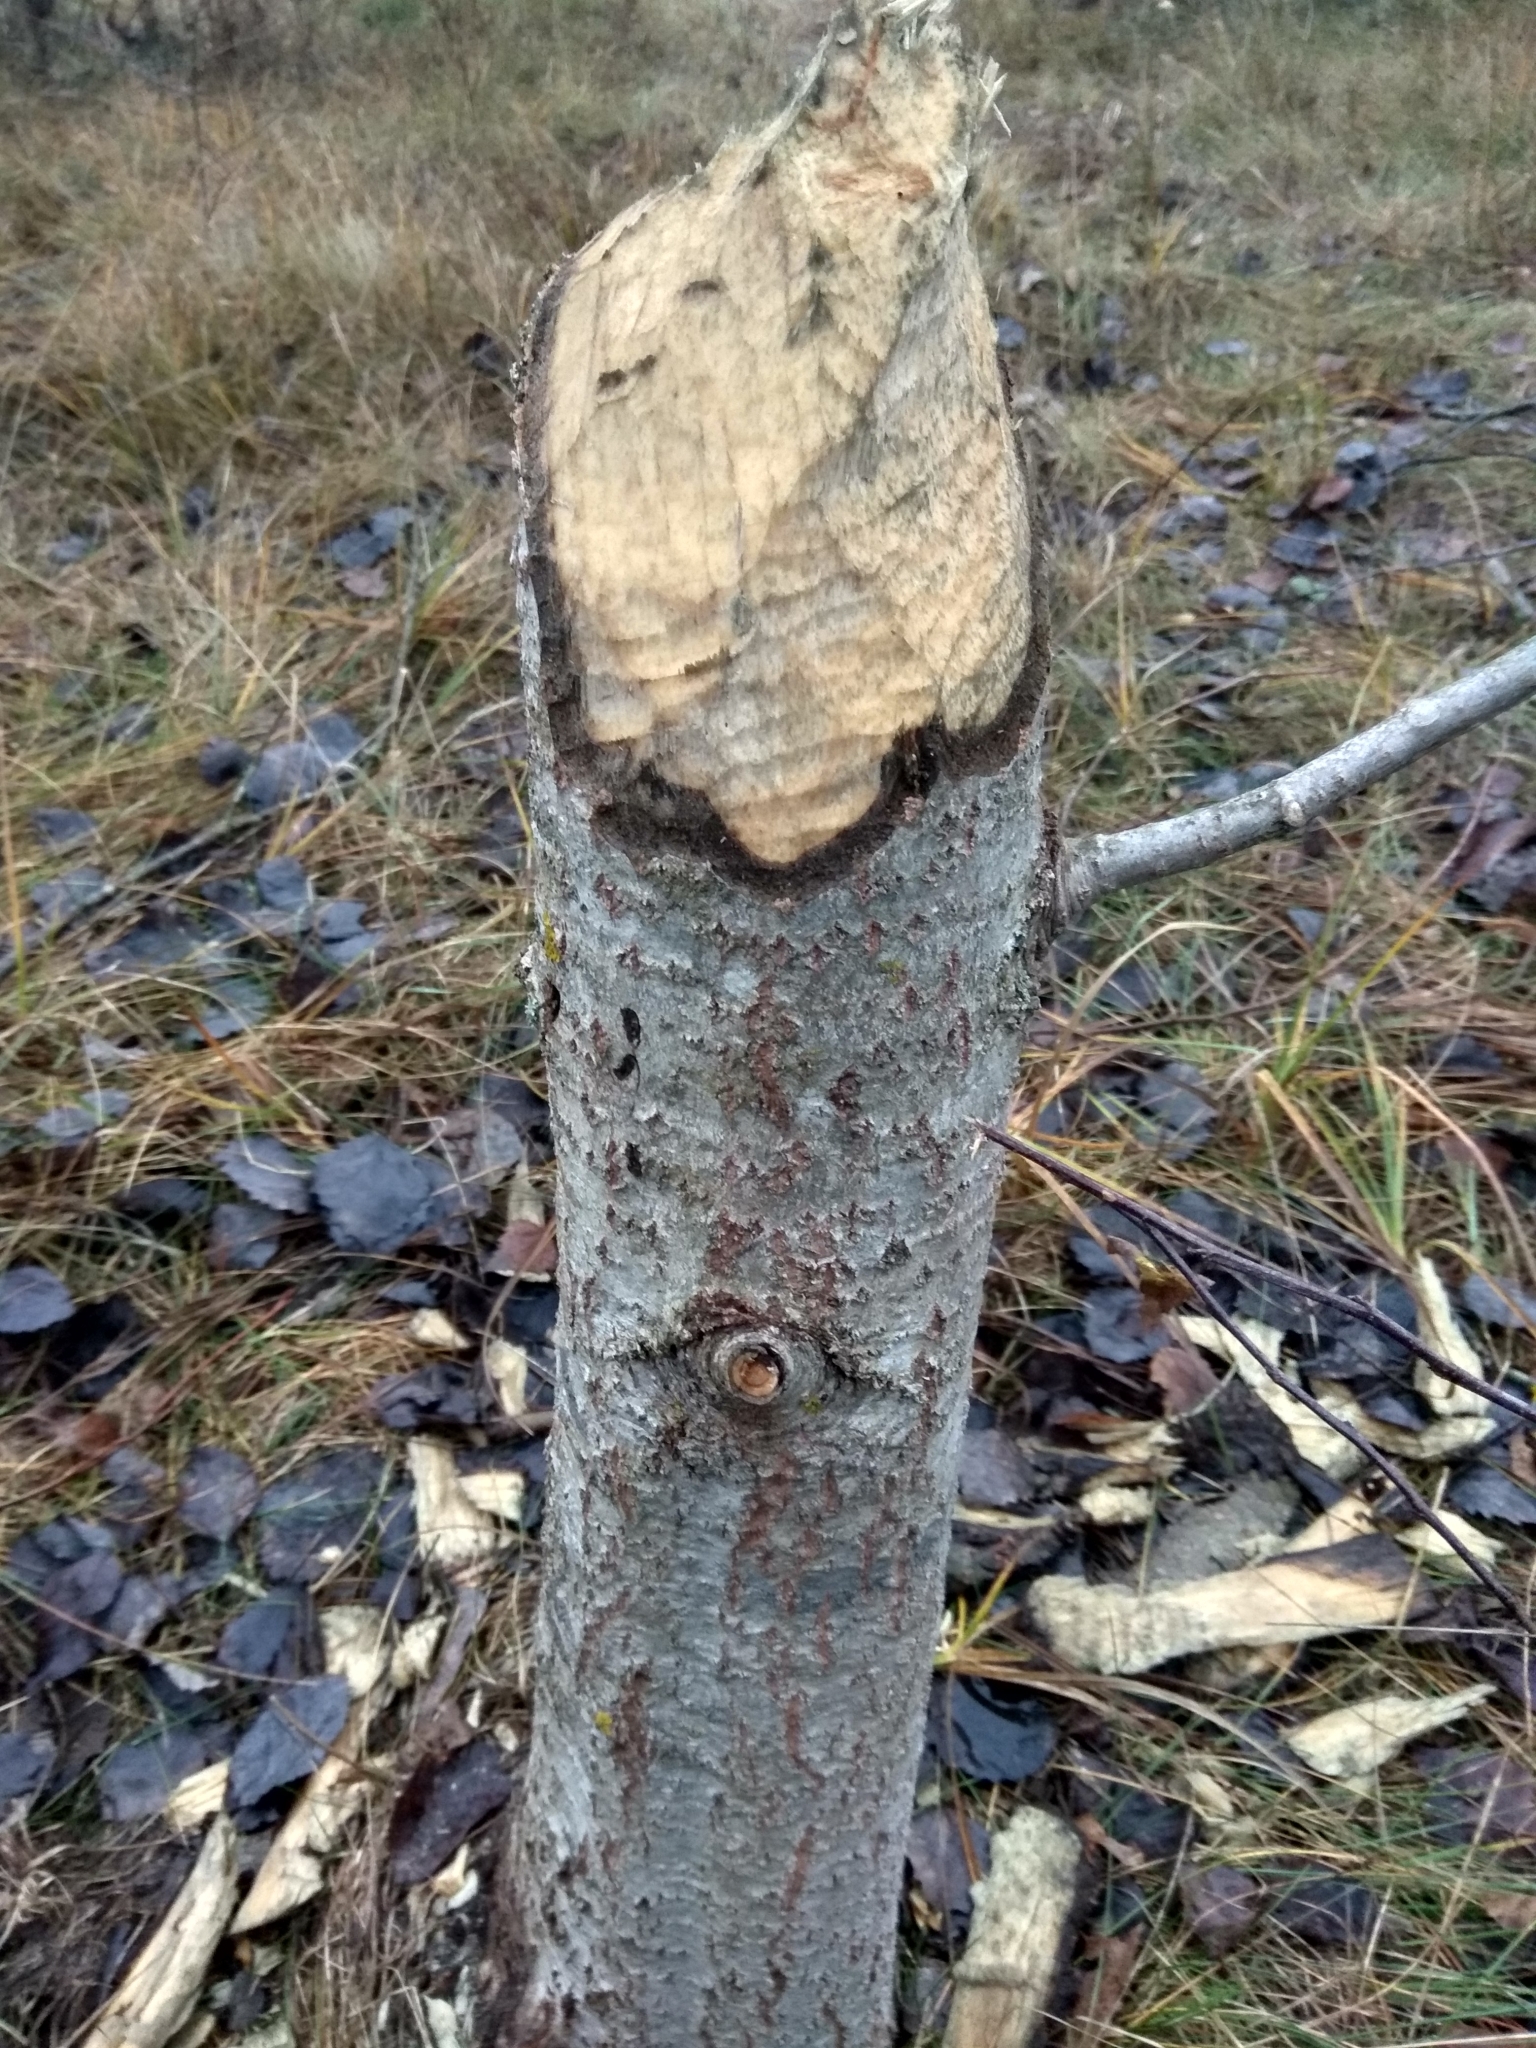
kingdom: Animalia
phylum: Chordata
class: Mammalia
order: Rodentia
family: Castoridae
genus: Castor
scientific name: Castor fiber
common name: Eurasian beaver
